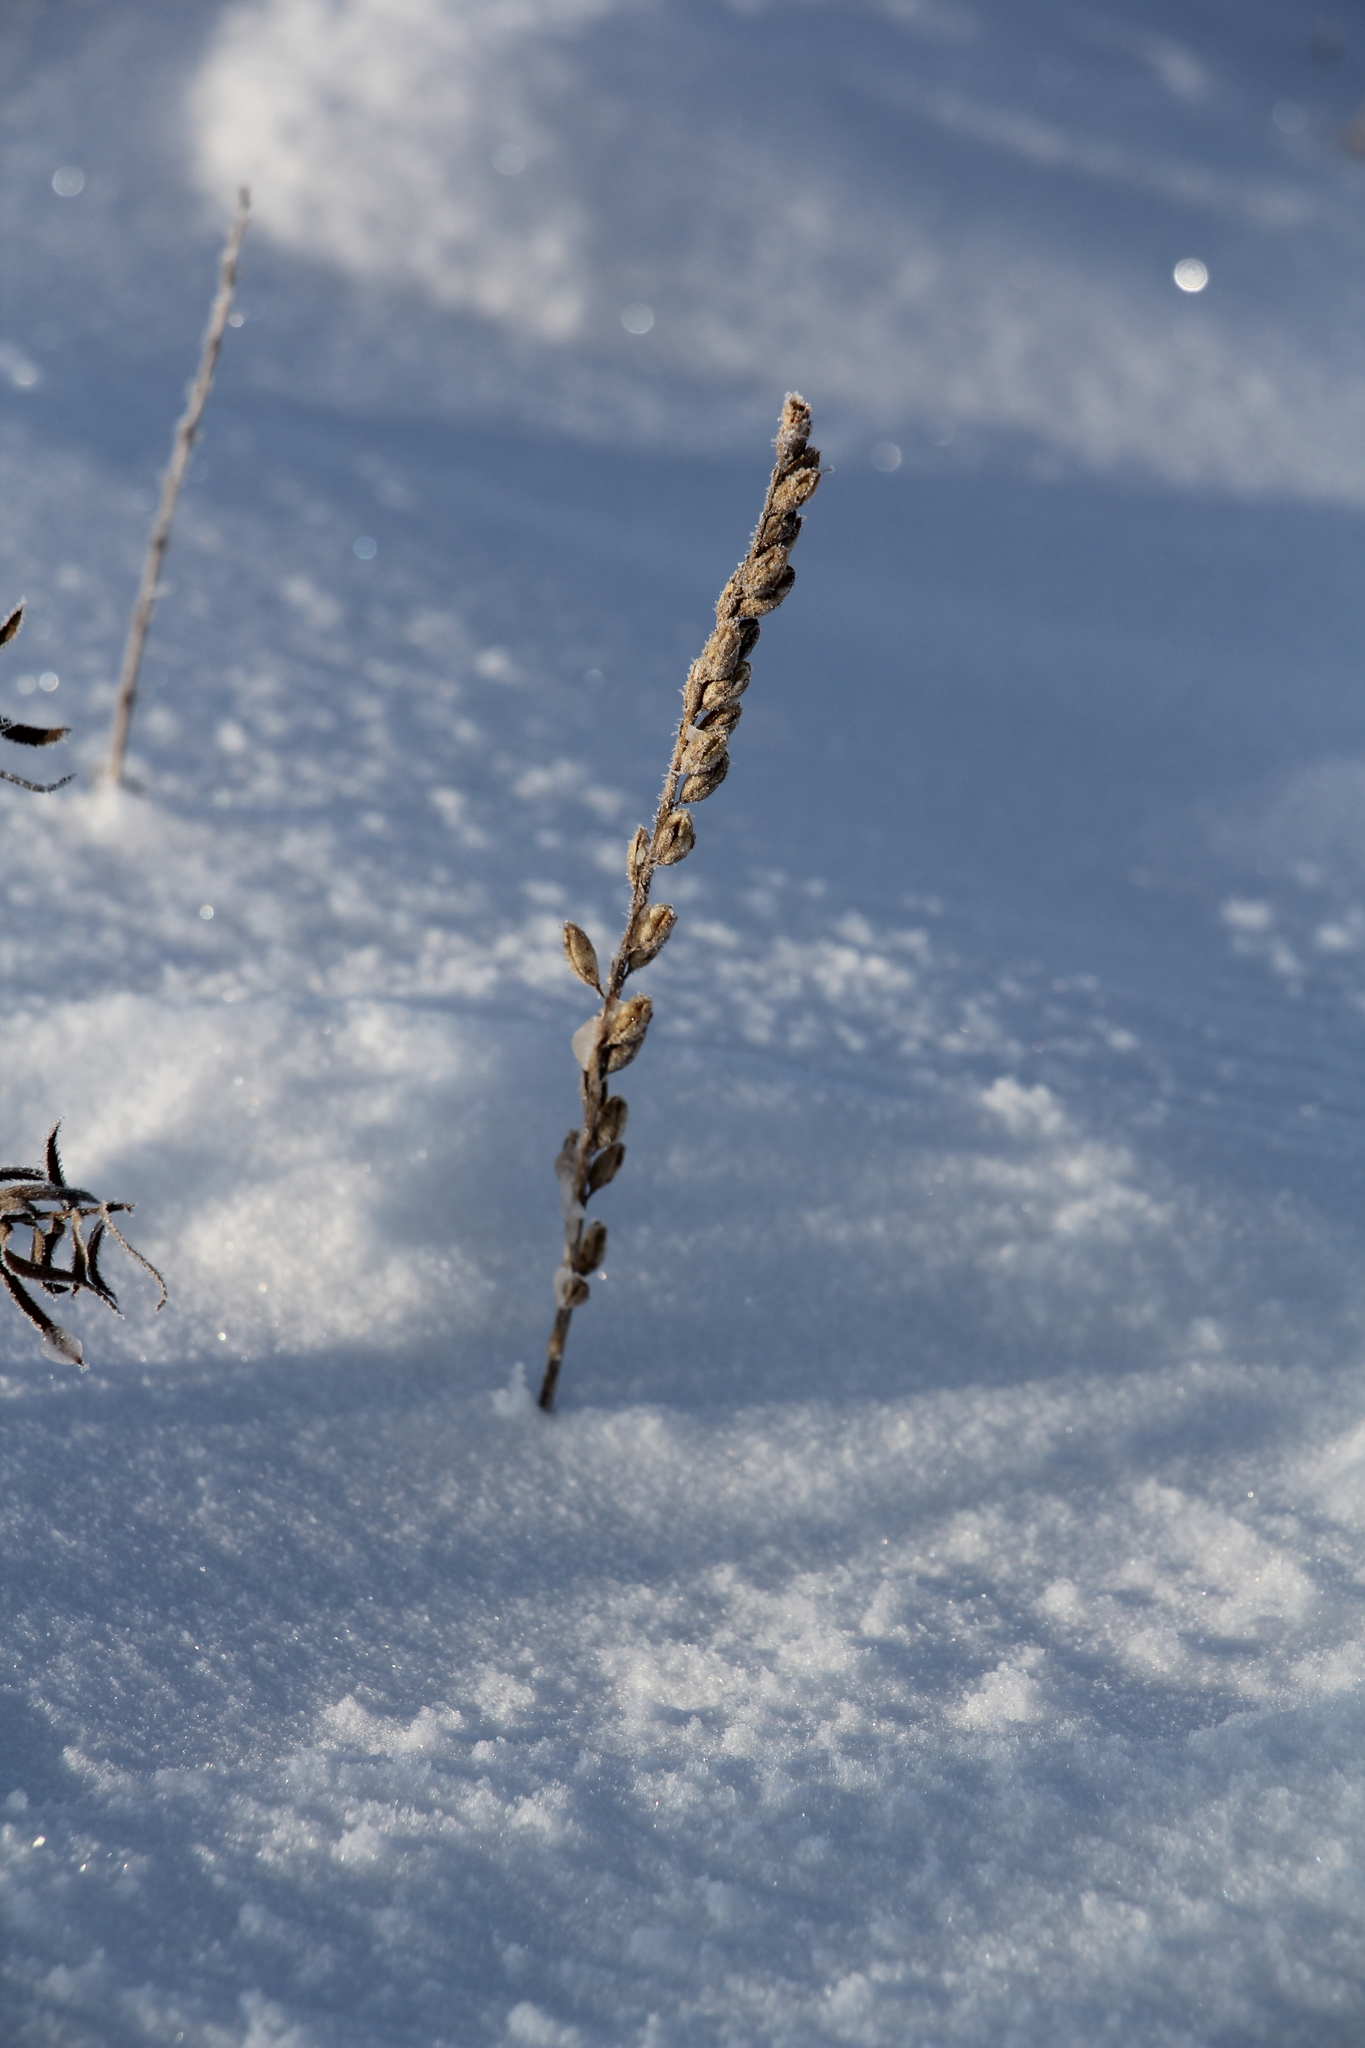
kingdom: Plantae
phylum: Tracheophyta
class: Magnoliopsida
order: Lamiales
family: Orobanchaceae
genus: Odontites
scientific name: Odontites vulgaris
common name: Broomrape
